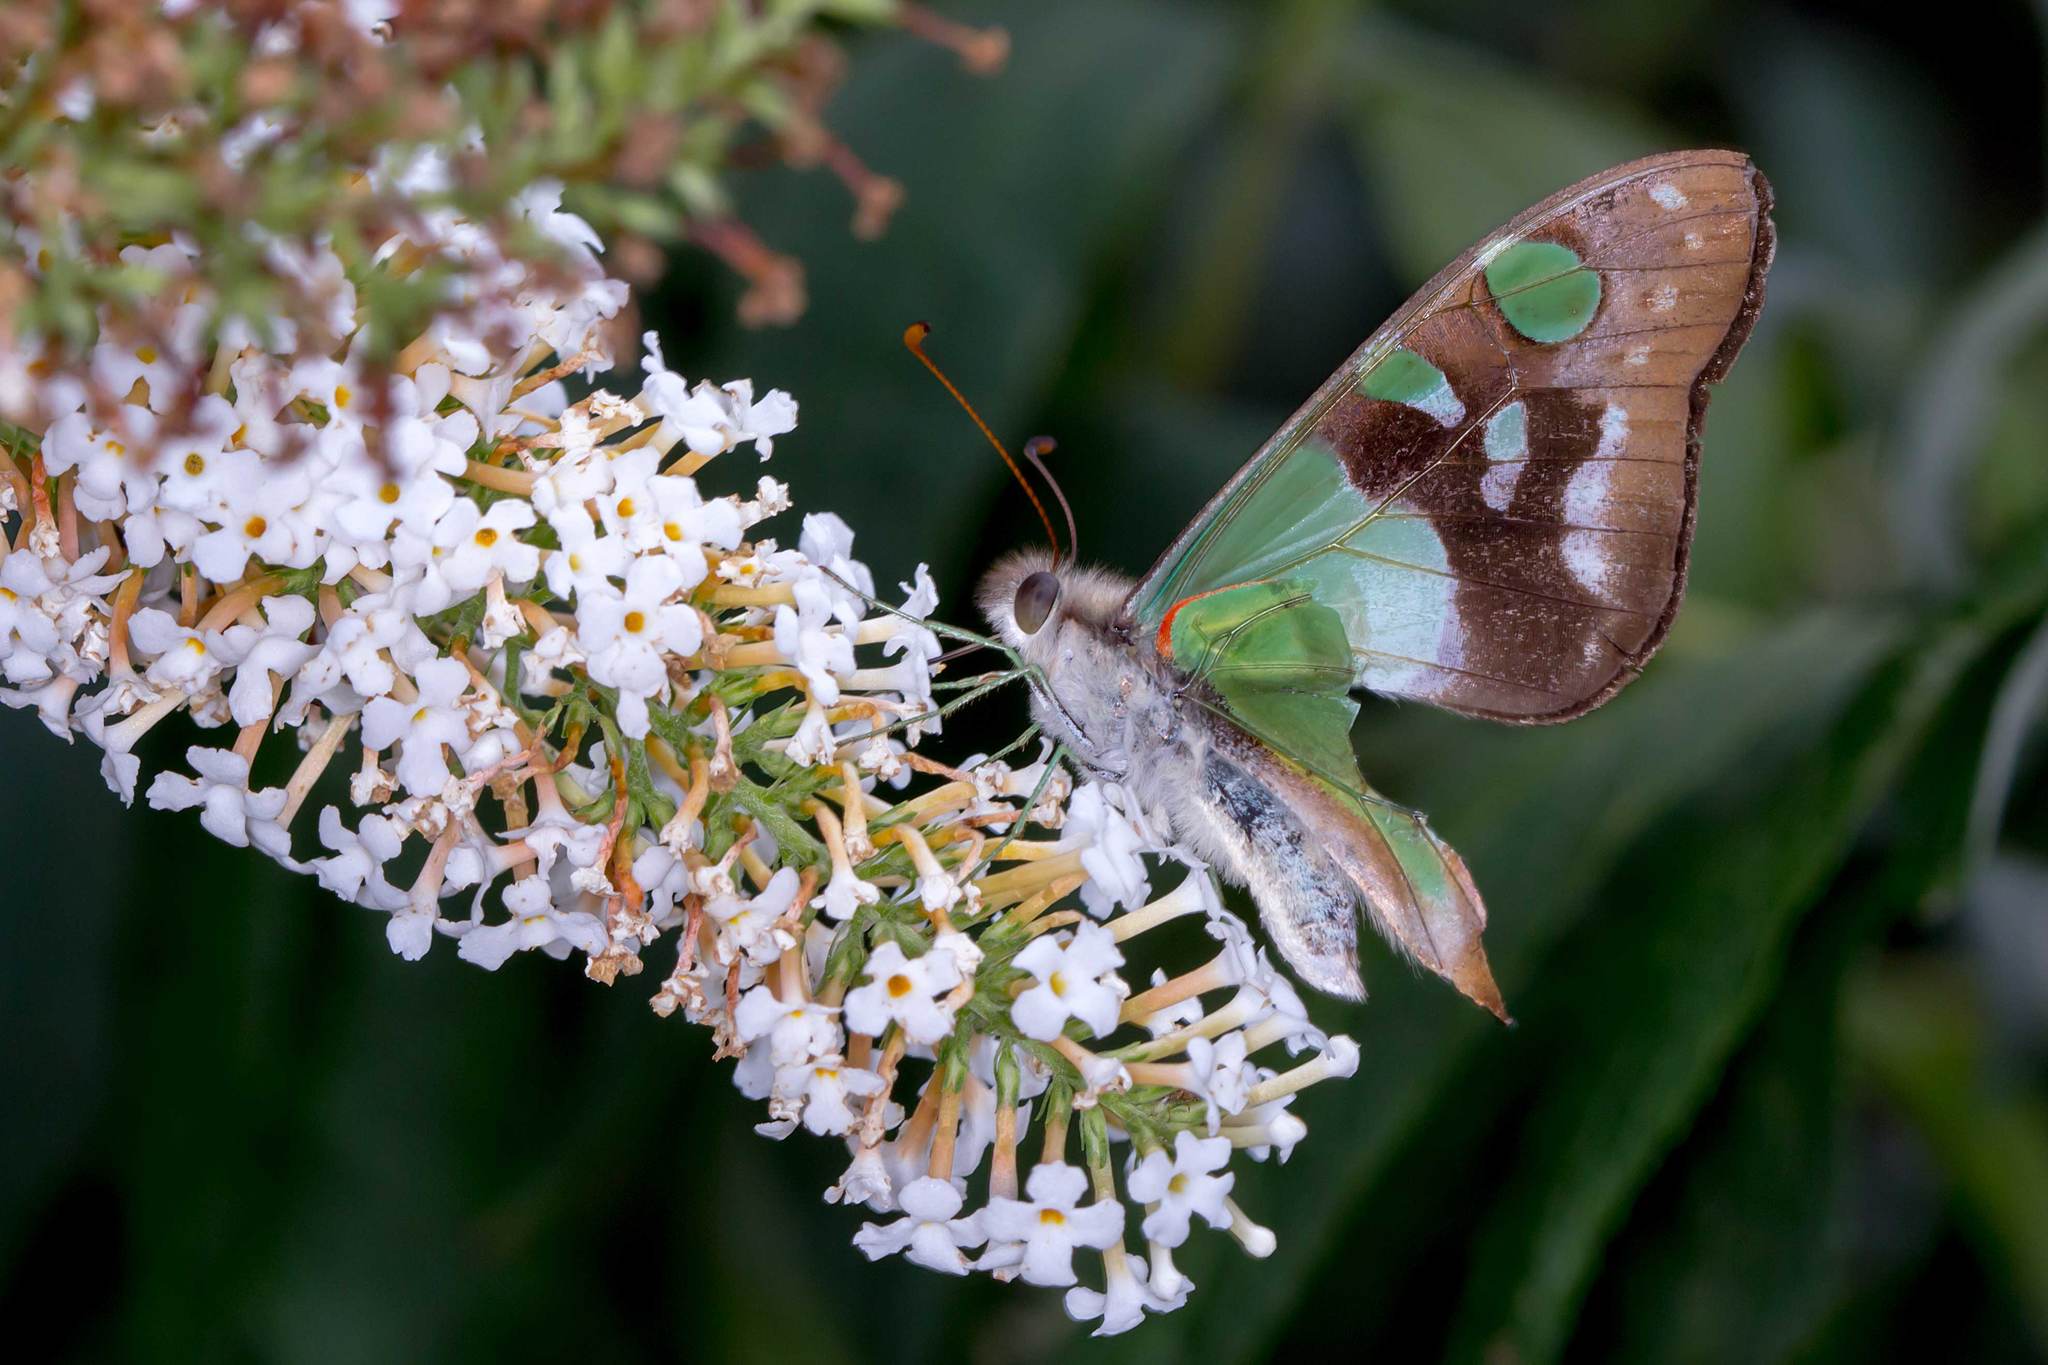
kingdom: Animalia
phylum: Arthropoda
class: Insecta
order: Lepidoptera
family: Papilionidae
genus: Graphium
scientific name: Graphium macleayanus
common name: Macleay's swallowtail
